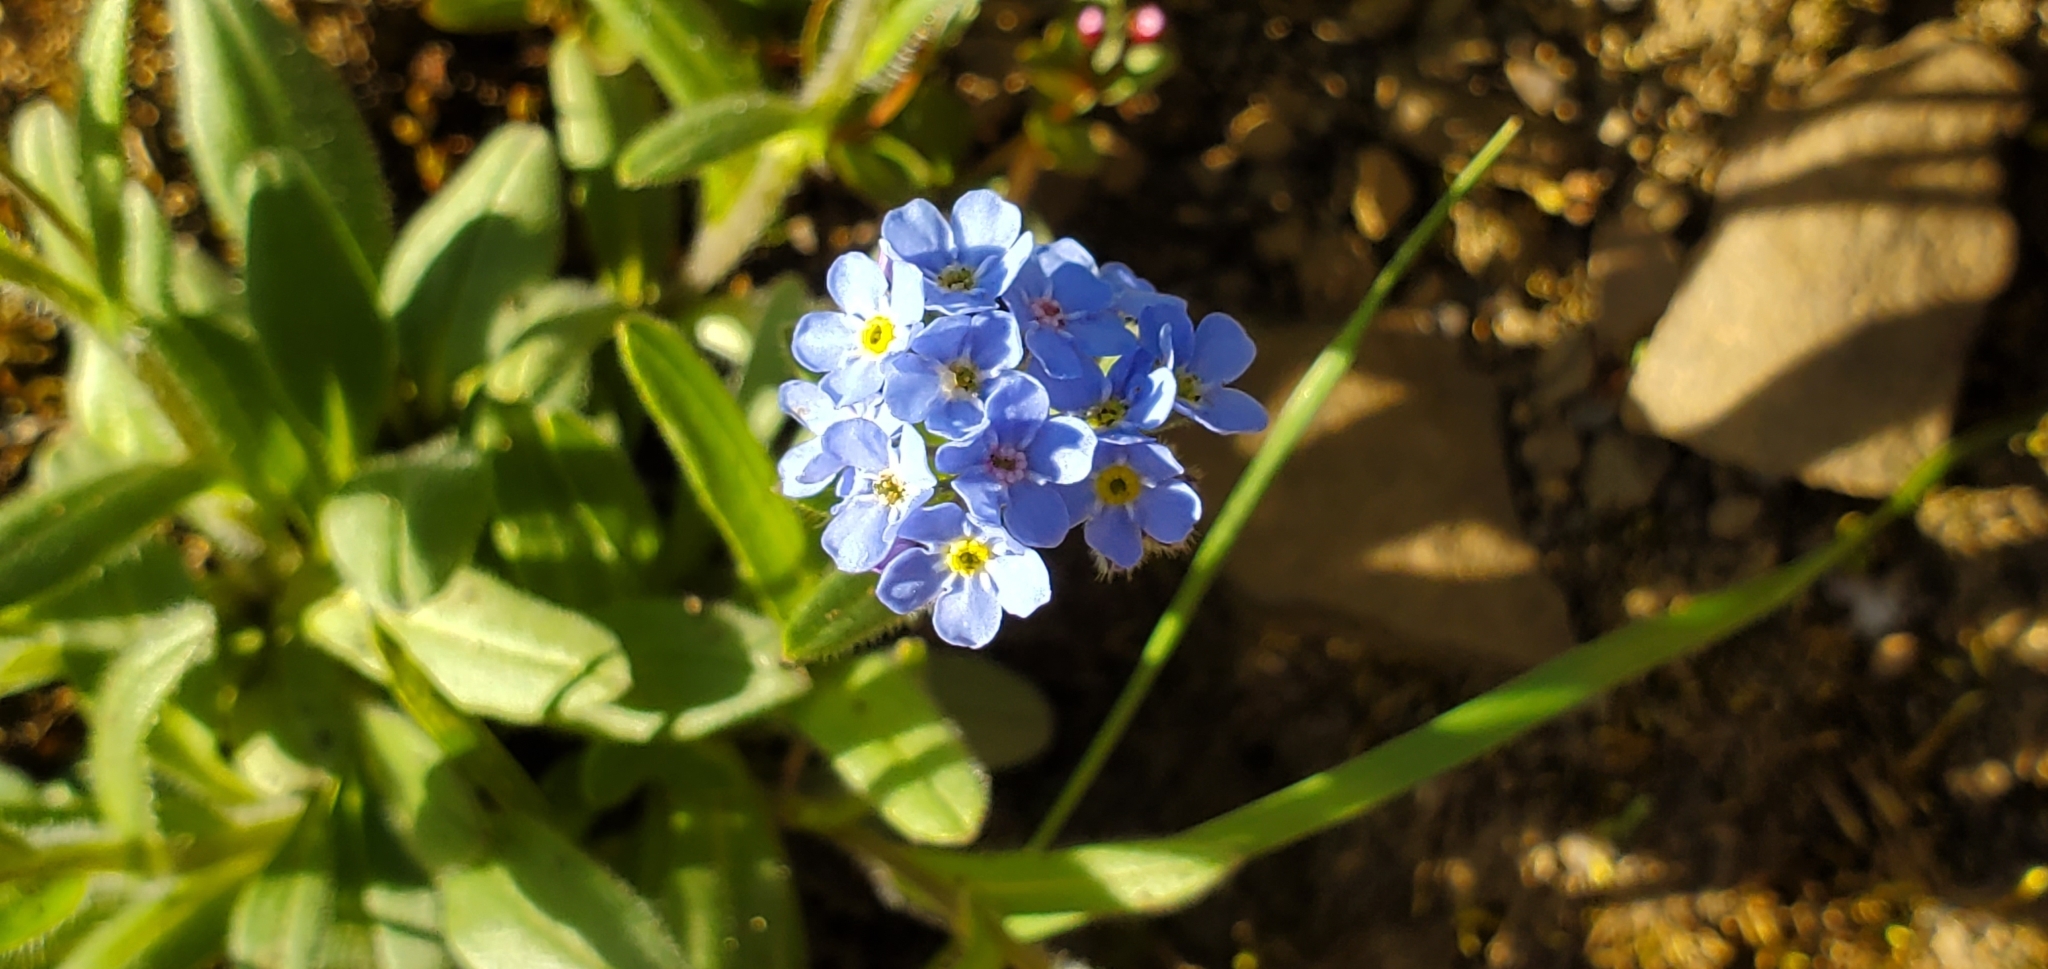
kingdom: Plantae
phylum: Tracheophyta
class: Magnoliopsida
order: Boraginales
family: Boraginaceae
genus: Myosotis
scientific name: Myosotis asiatica
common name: Asian forget-me-not
